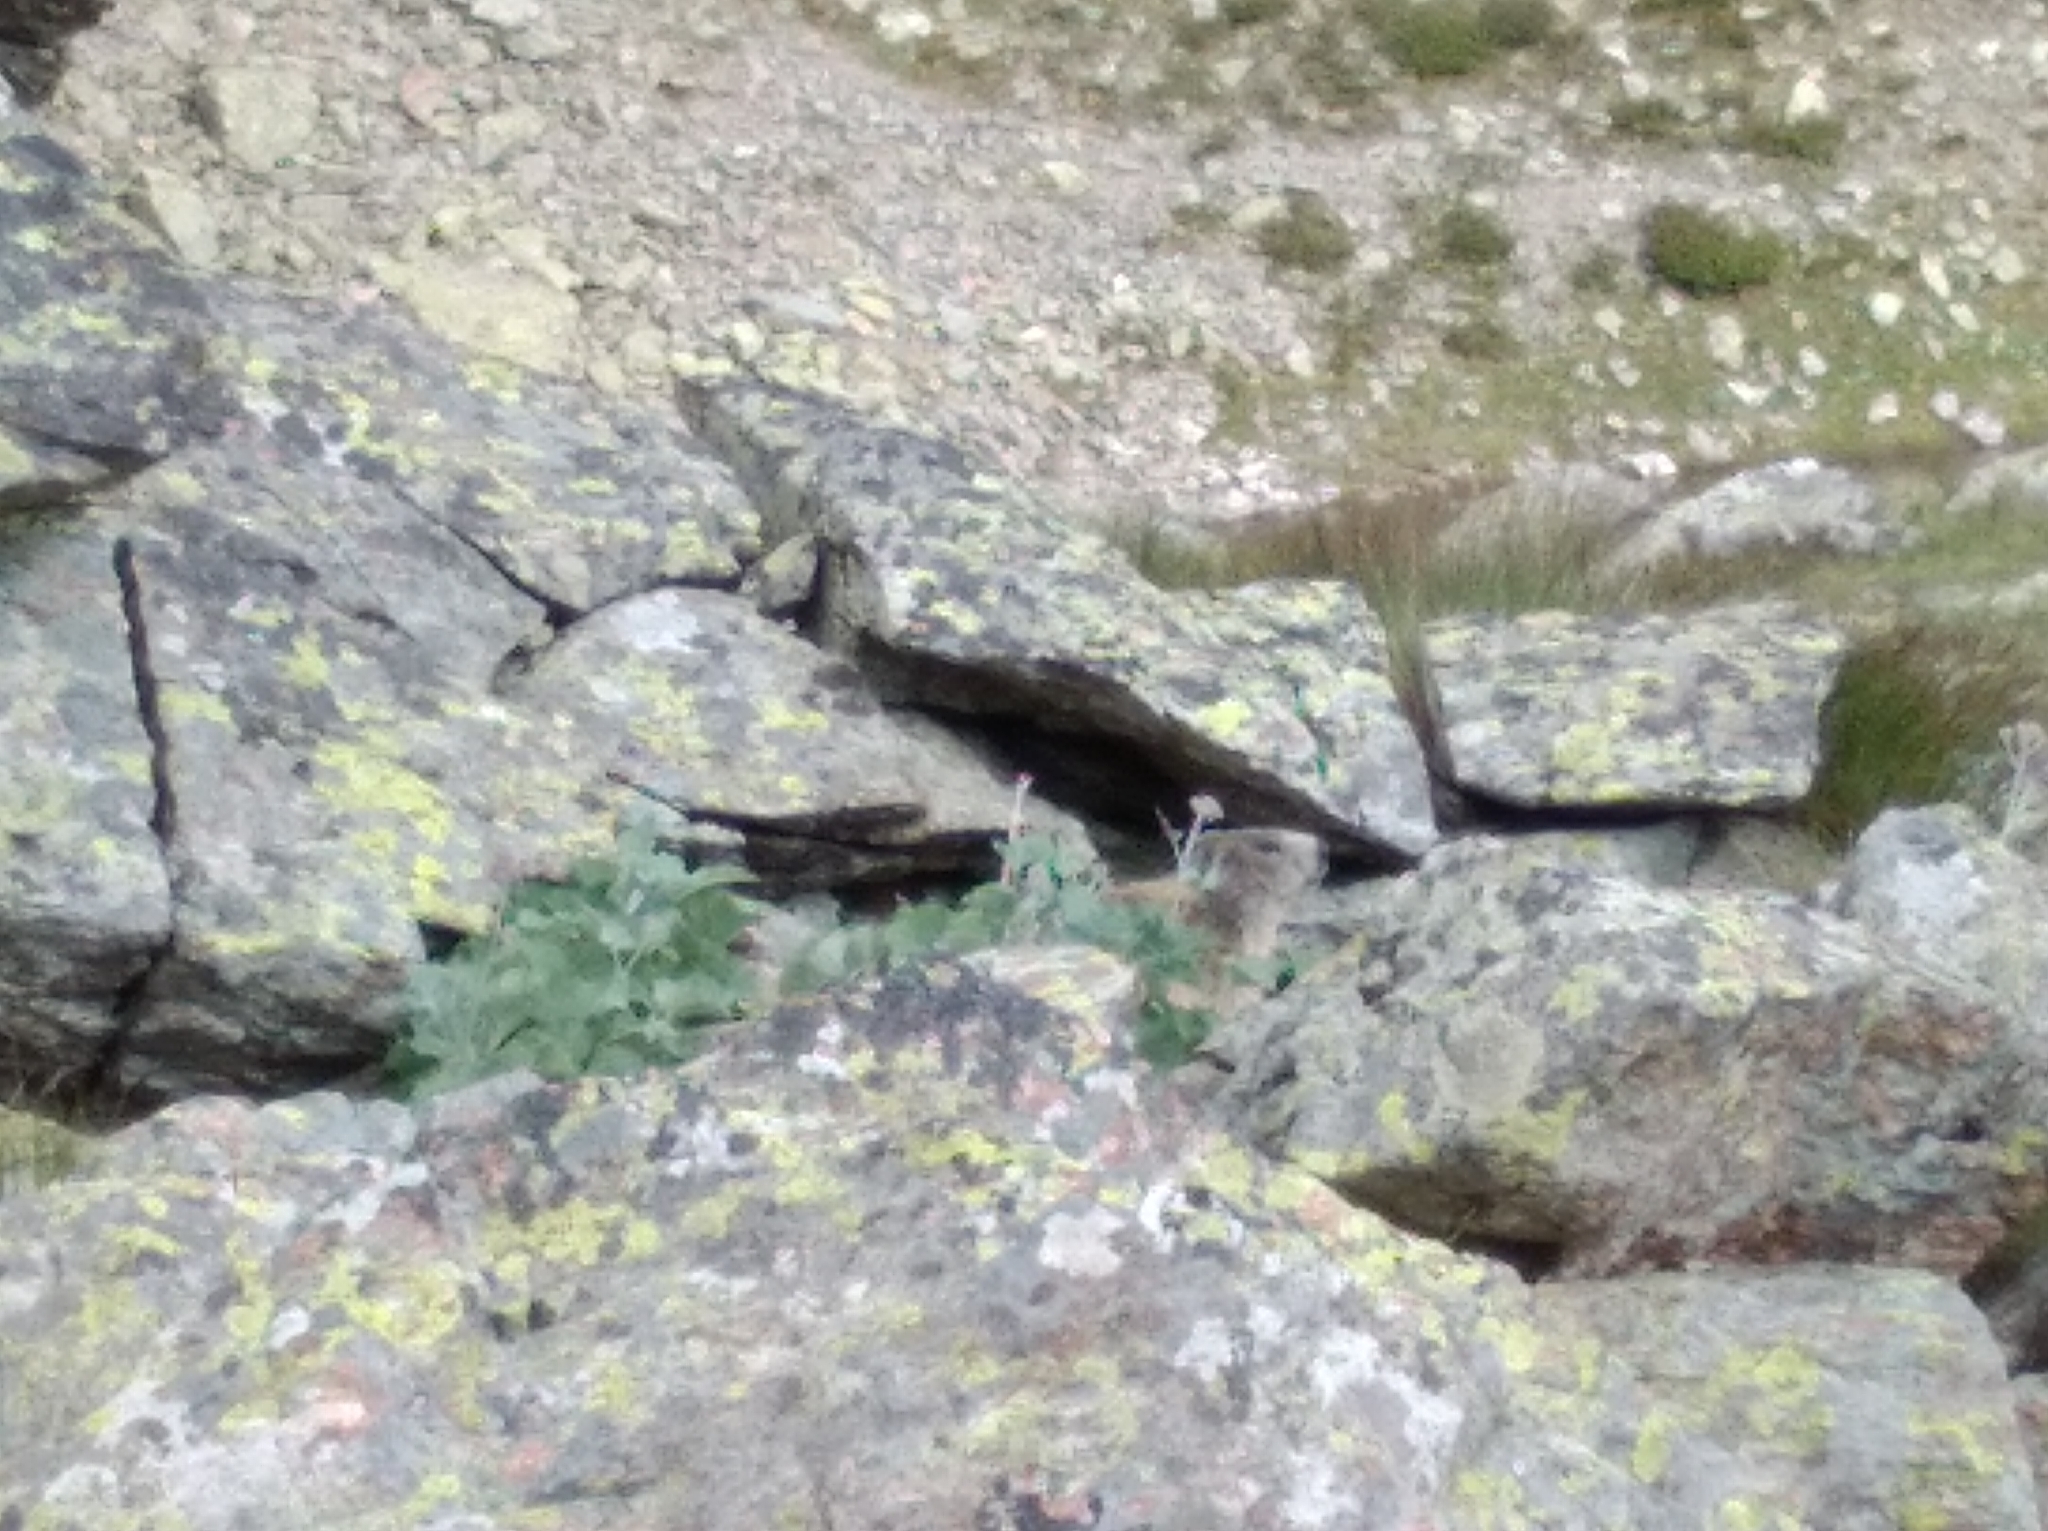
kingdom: Animalia
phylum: Chordata
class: Mammalia
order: Rodentia
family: Sciuridae
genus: Marmota
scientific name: Marmota marmota
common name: Alpine marmot
